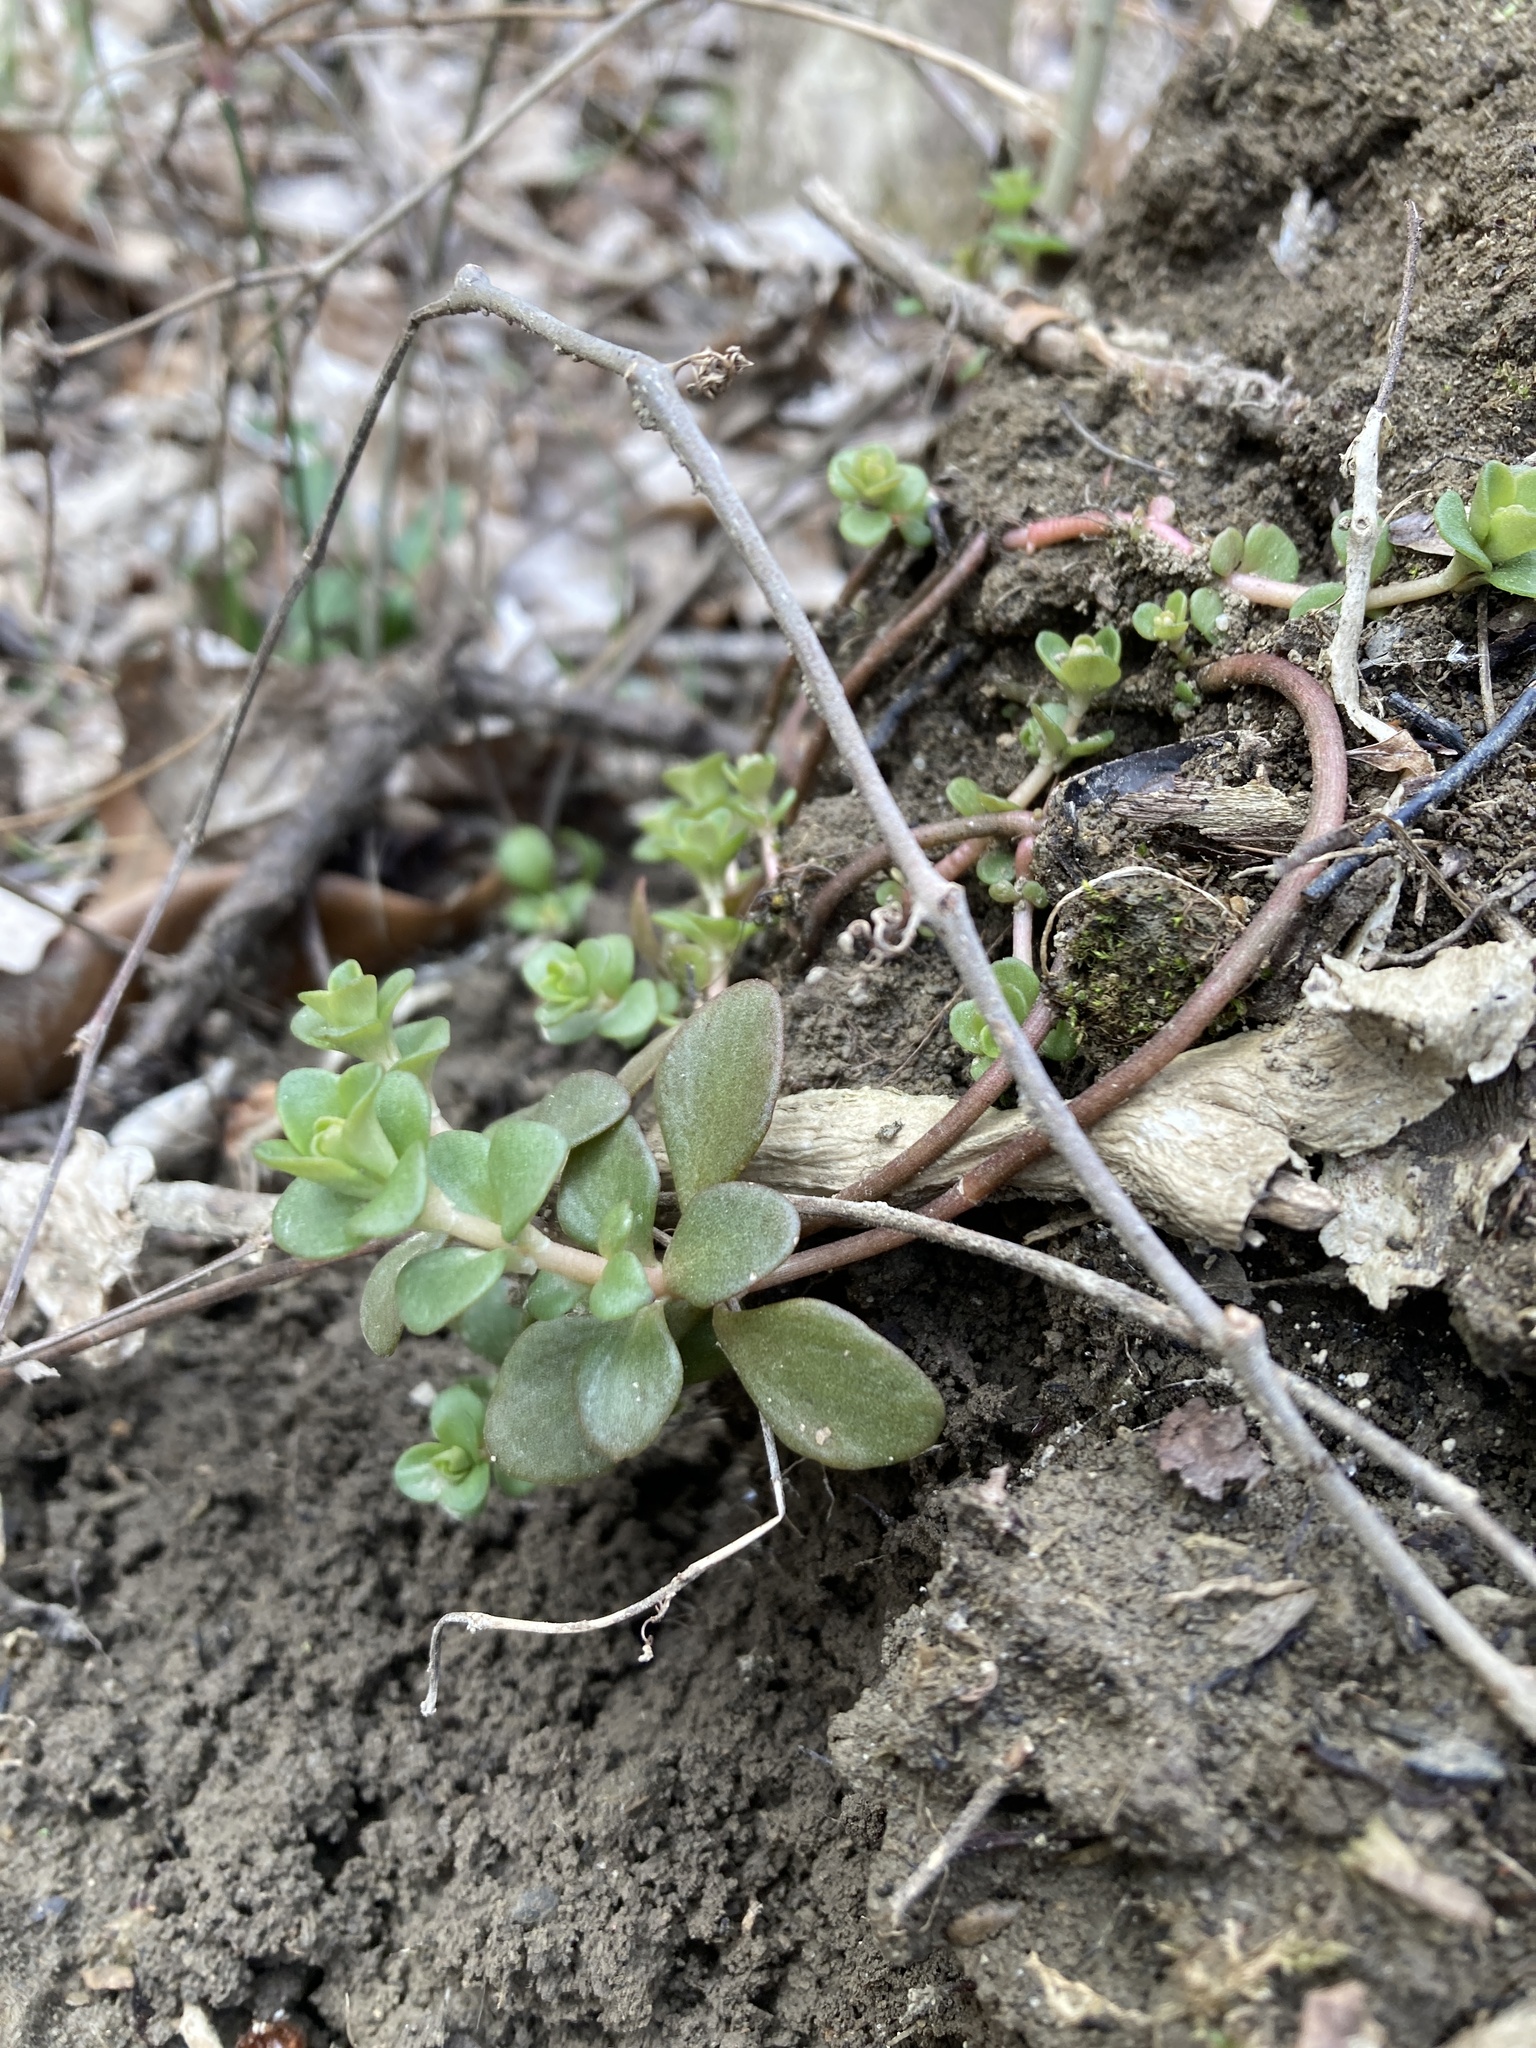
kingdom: Plantae
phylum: Tracheophyta
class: Magnoliopsida
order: Saxifragales
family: Crassulaceae
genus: Sedum
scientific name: Sedum ternatum
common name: Wild stonecrop
